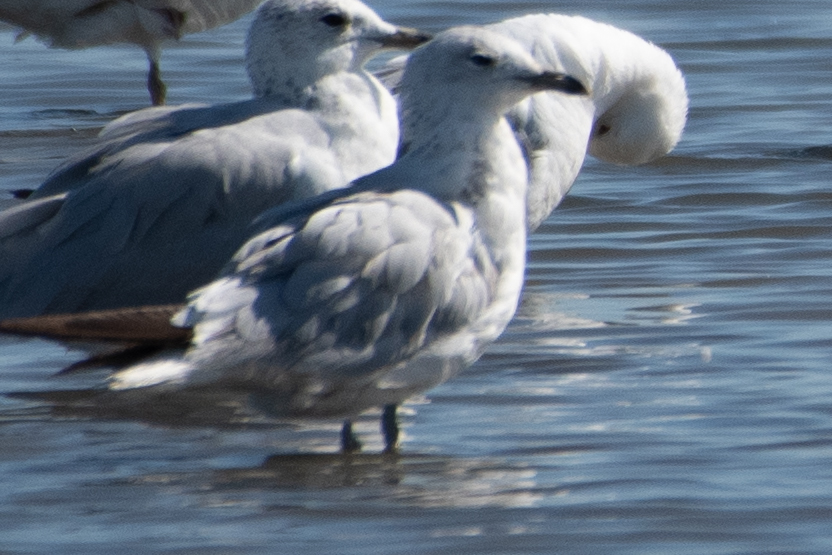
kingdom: Animalia
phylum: Chordata
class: Aves
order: Charadriiformes
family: Laridae
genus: Larus
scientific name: Larus delawarensis
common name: Ring-billed gull
